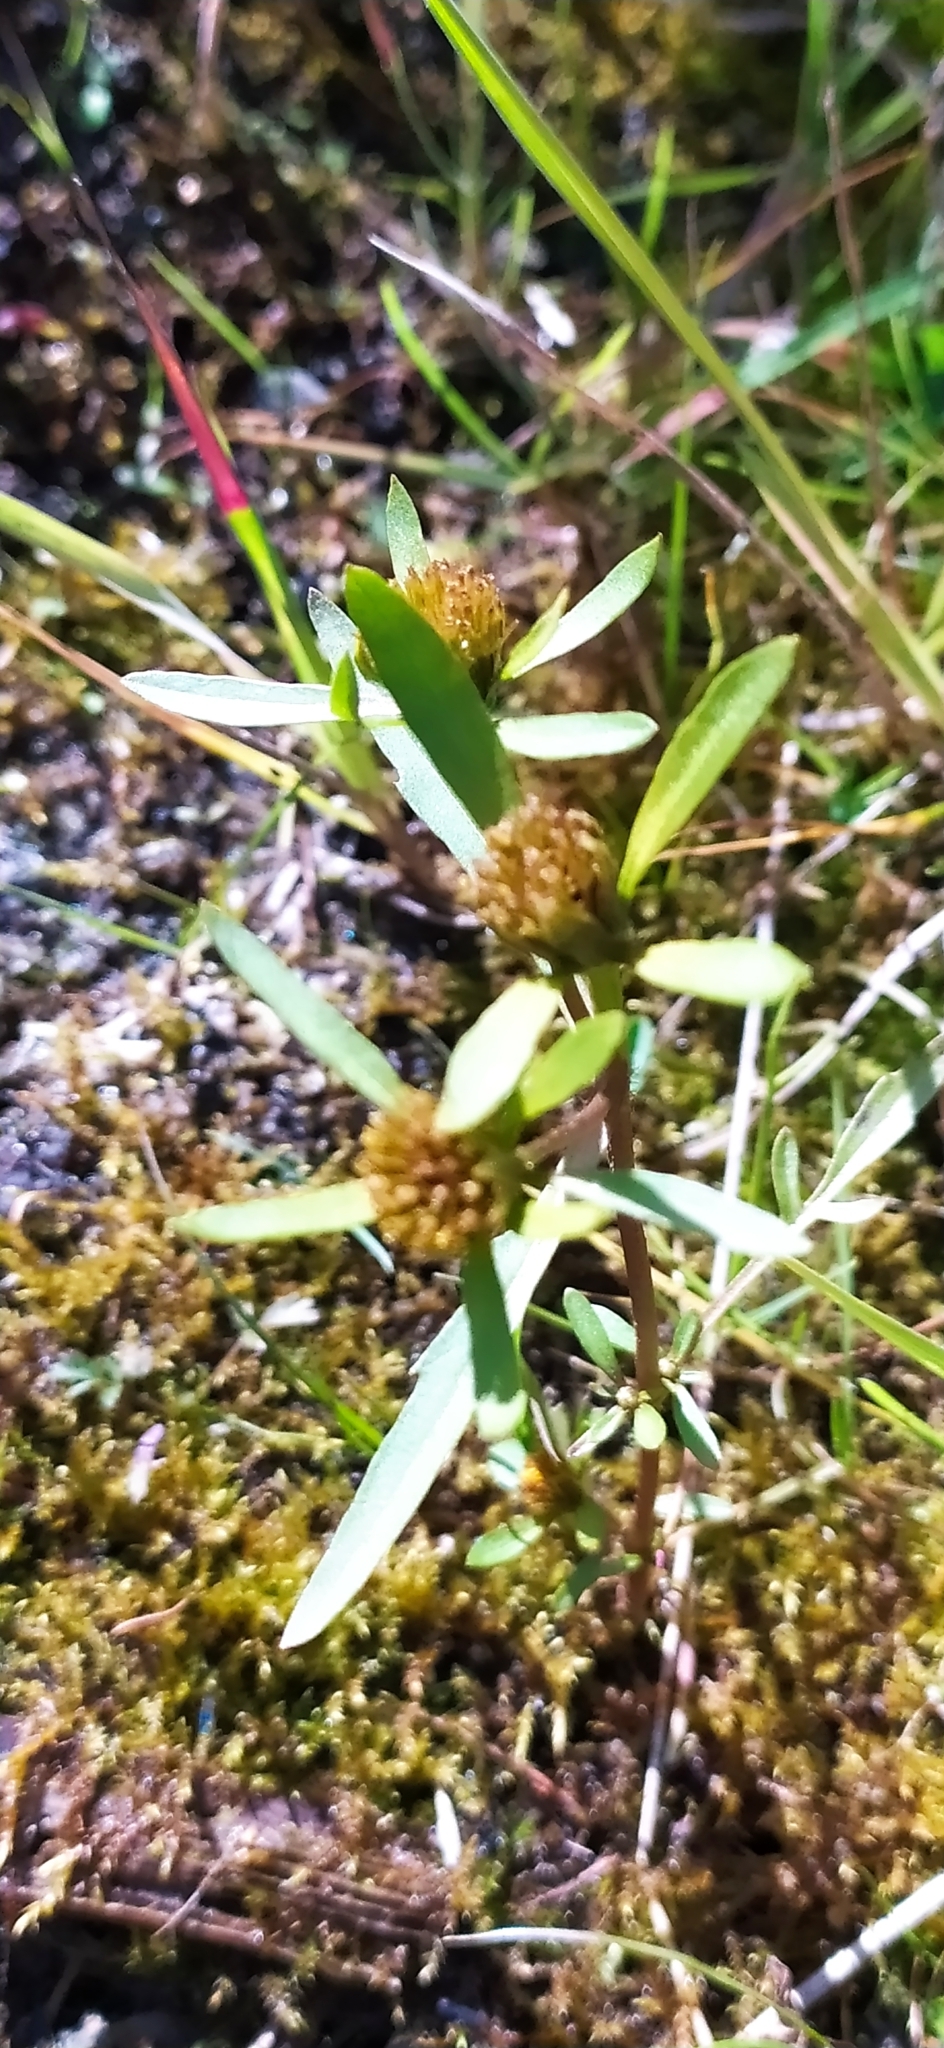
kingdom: Plantae
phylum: Tracheophyta
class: Magnoliopsida
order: Asterales
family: Asteraceae
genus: Bidens
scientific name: Bidens tripartita
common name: Trifid bur-marigold
